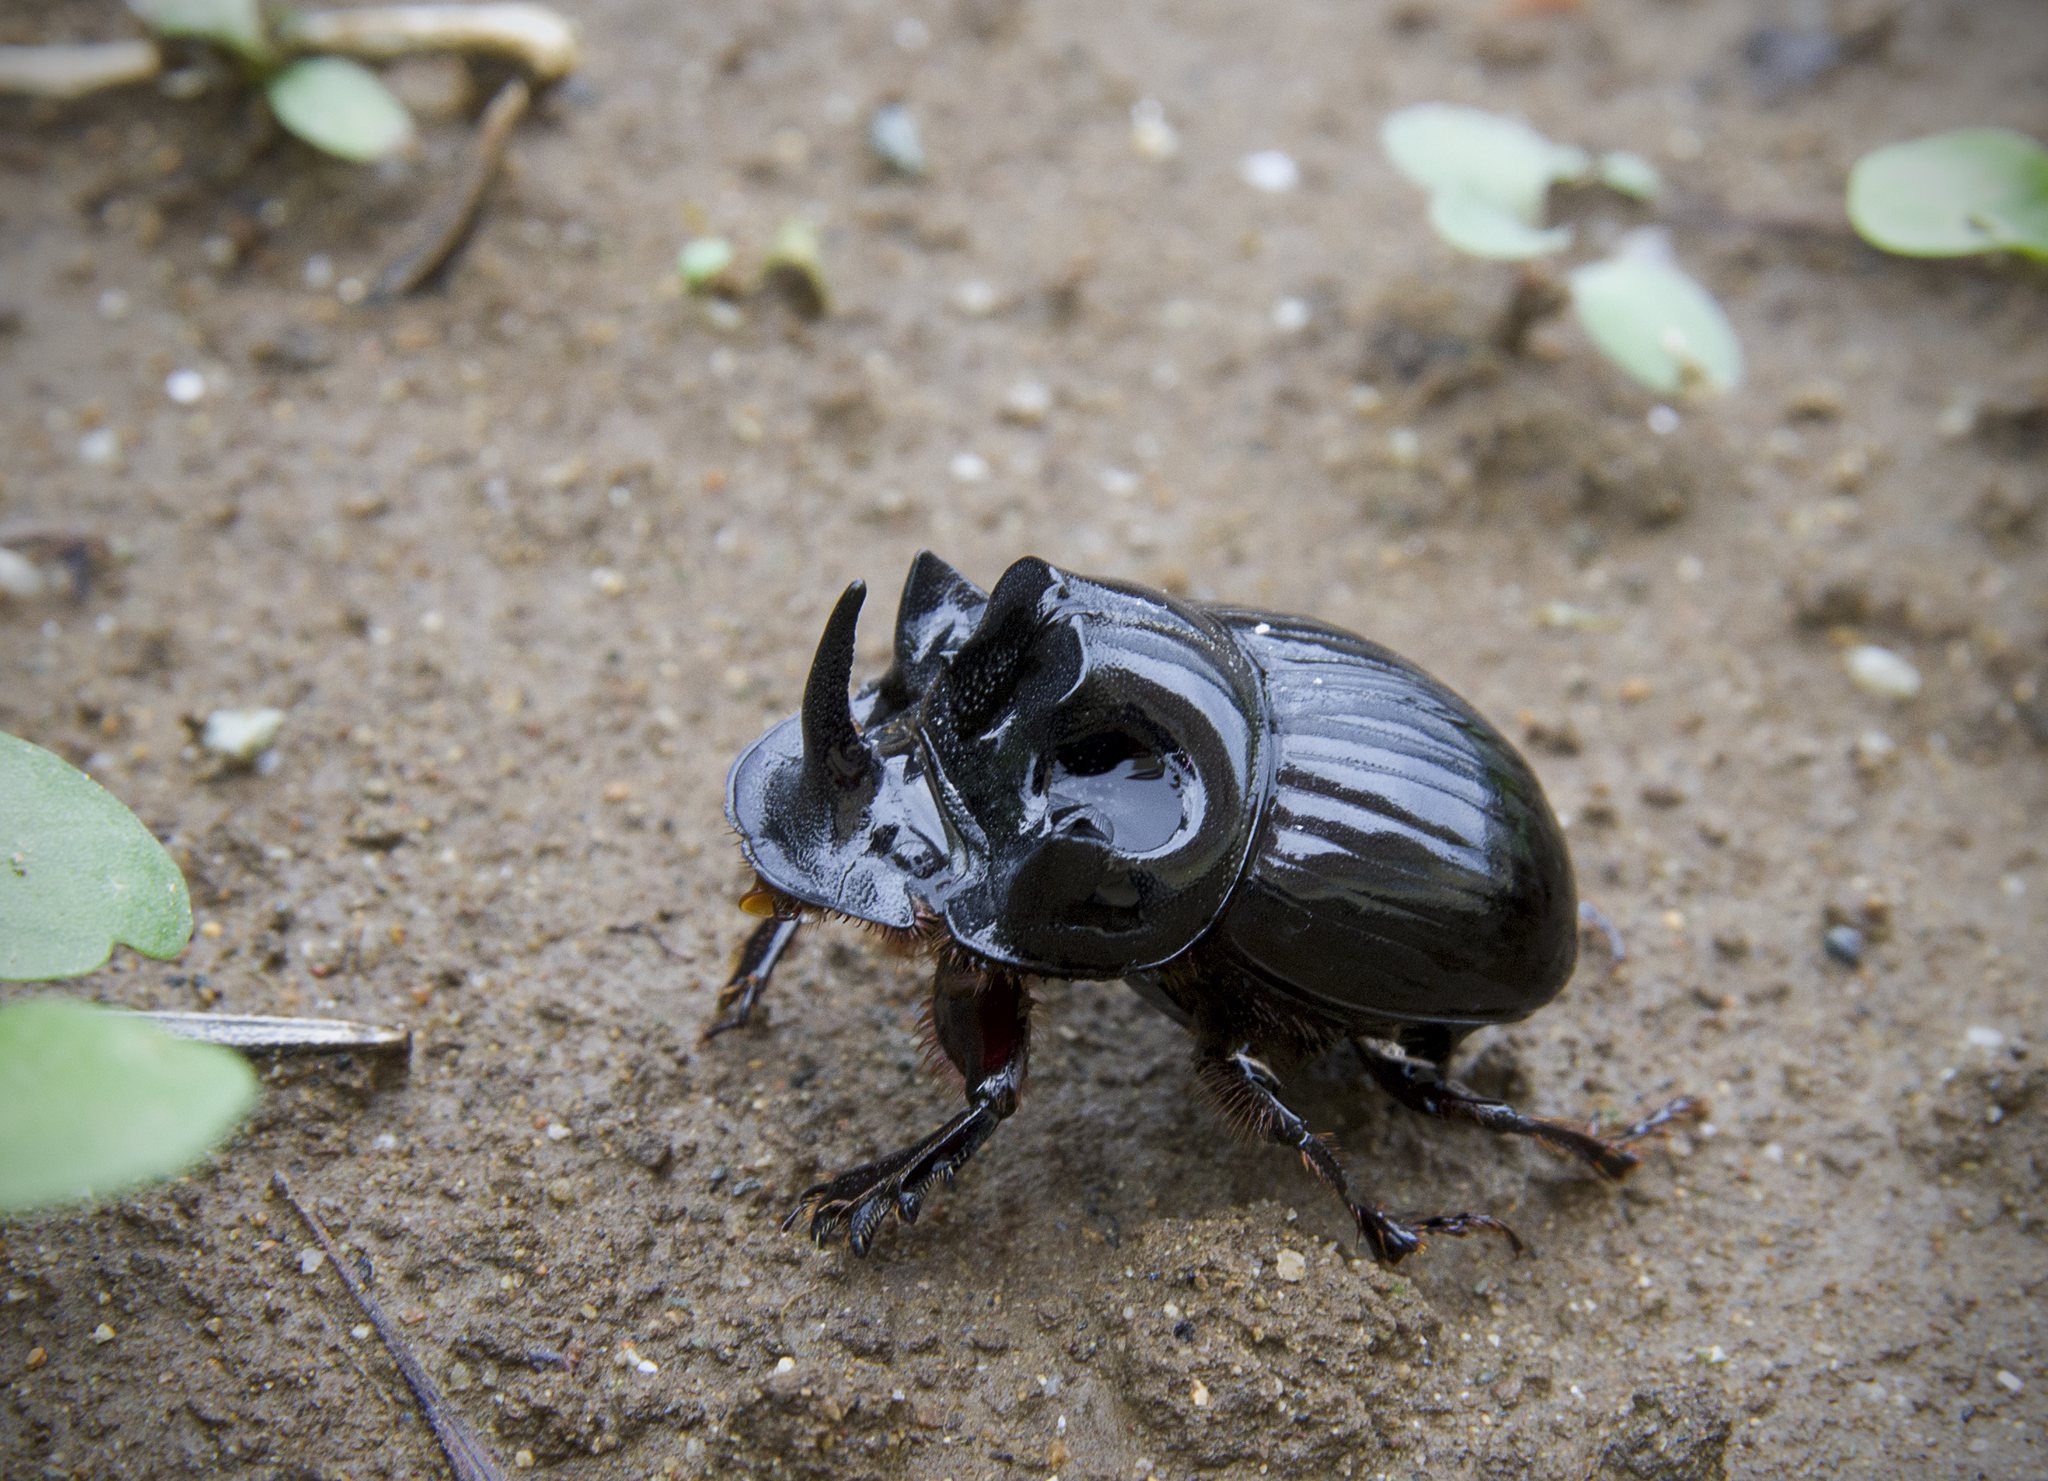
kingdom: Animalia
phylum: Arthropoda
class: Insecta
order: Coleoptera
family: Scarabaeidae
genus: Copris
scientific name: Copris lunaris
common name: Horned dung beetle
